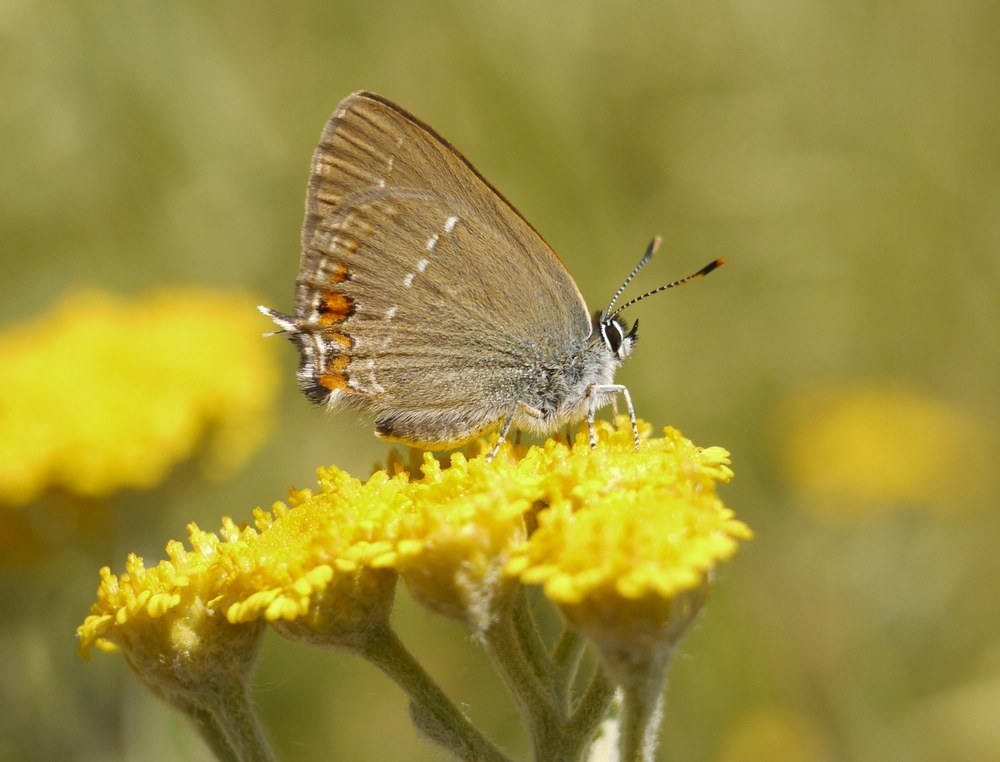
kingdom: Animalia
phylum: Arthropoda
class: Insecta
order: Lepidoptera
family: Lycaenidae
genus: Strymon
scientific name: Strymon acaciae
